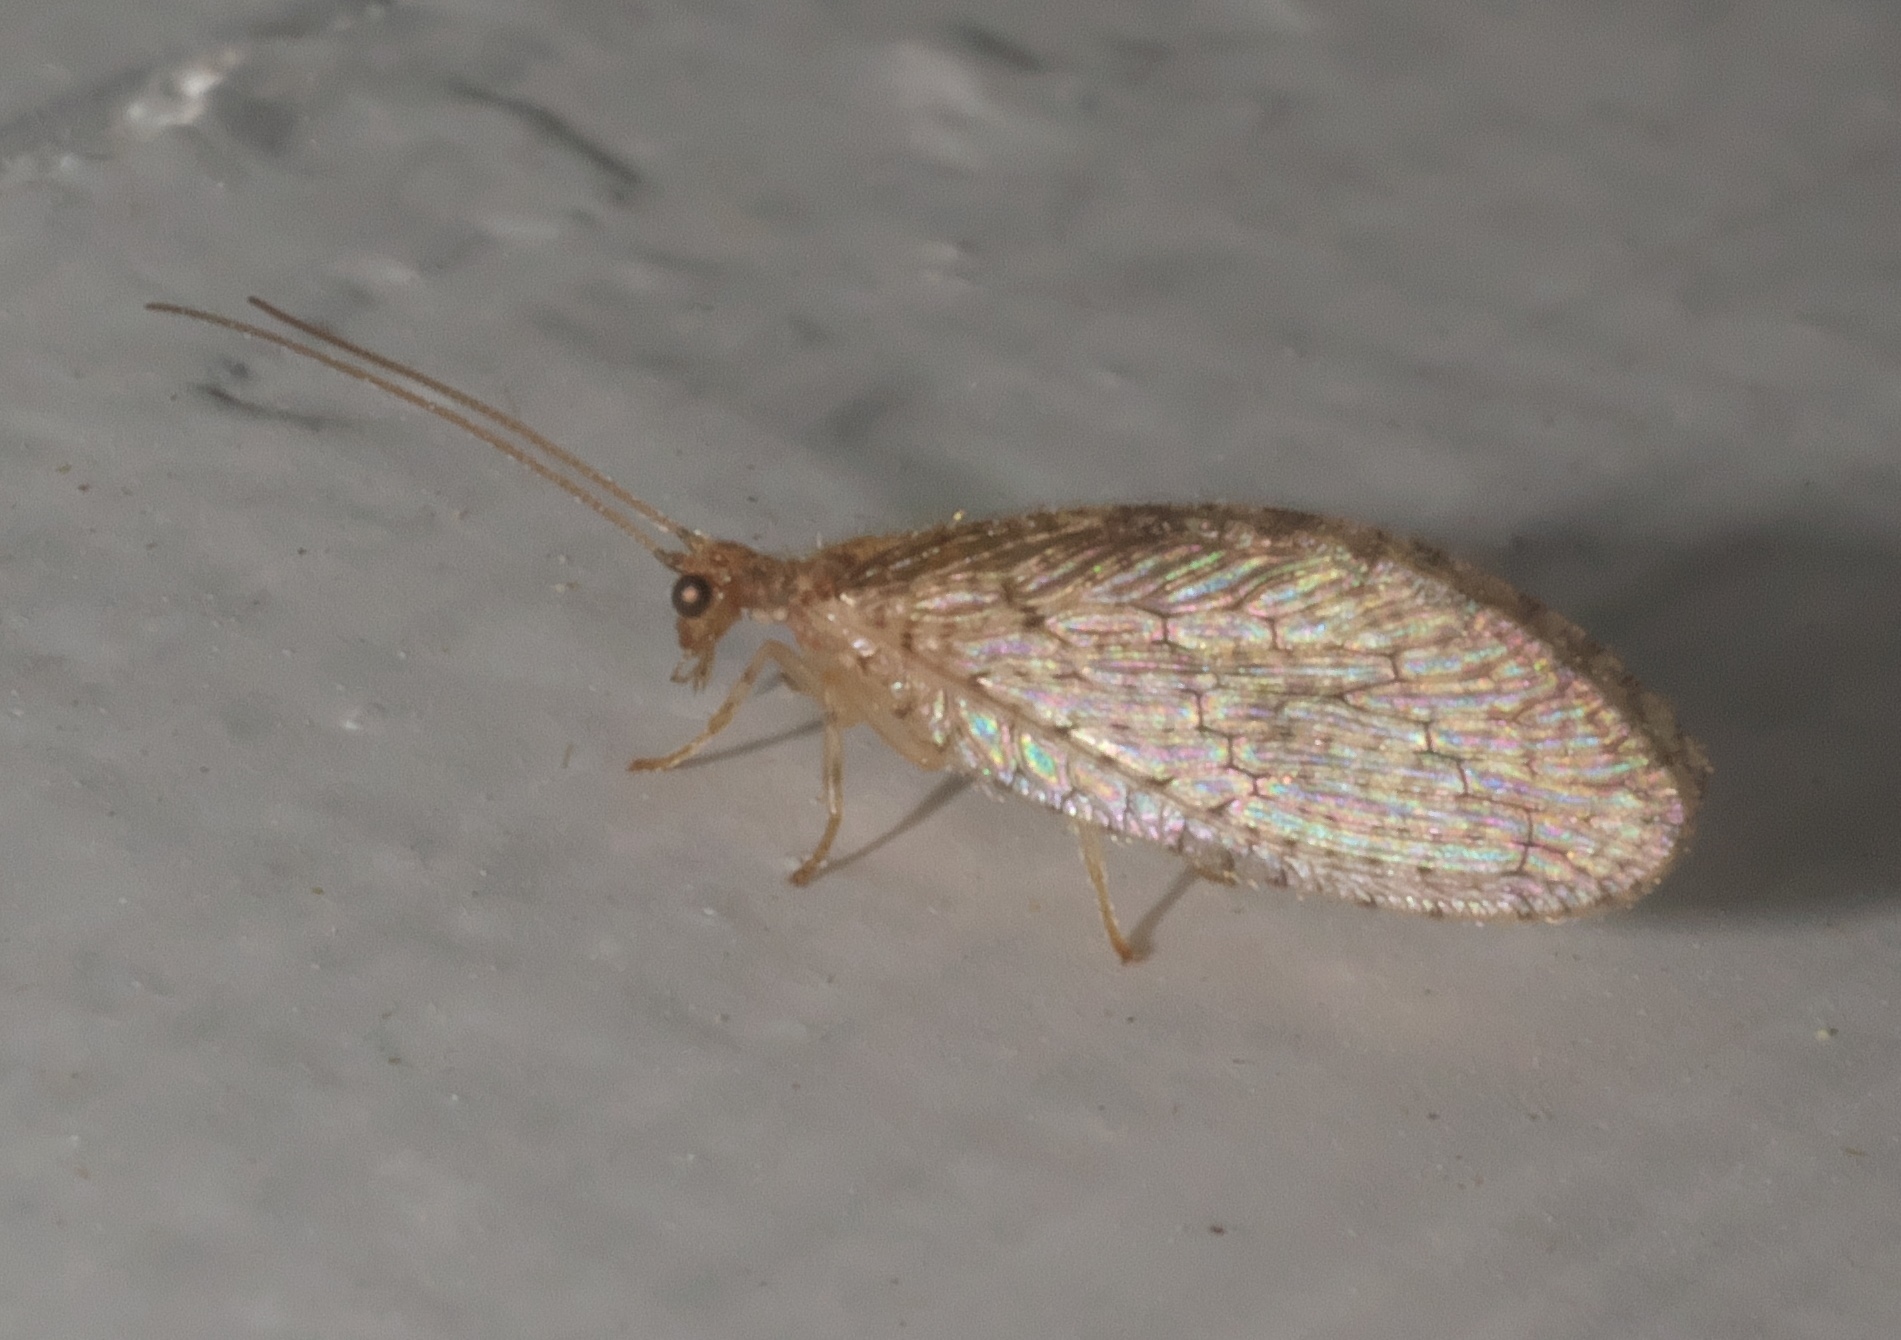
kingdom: Animalia
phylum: Arthropoda
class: Insecta
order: Neuroptera
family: Hemerobiidae
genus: Micromus
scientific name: Micromus posticus
